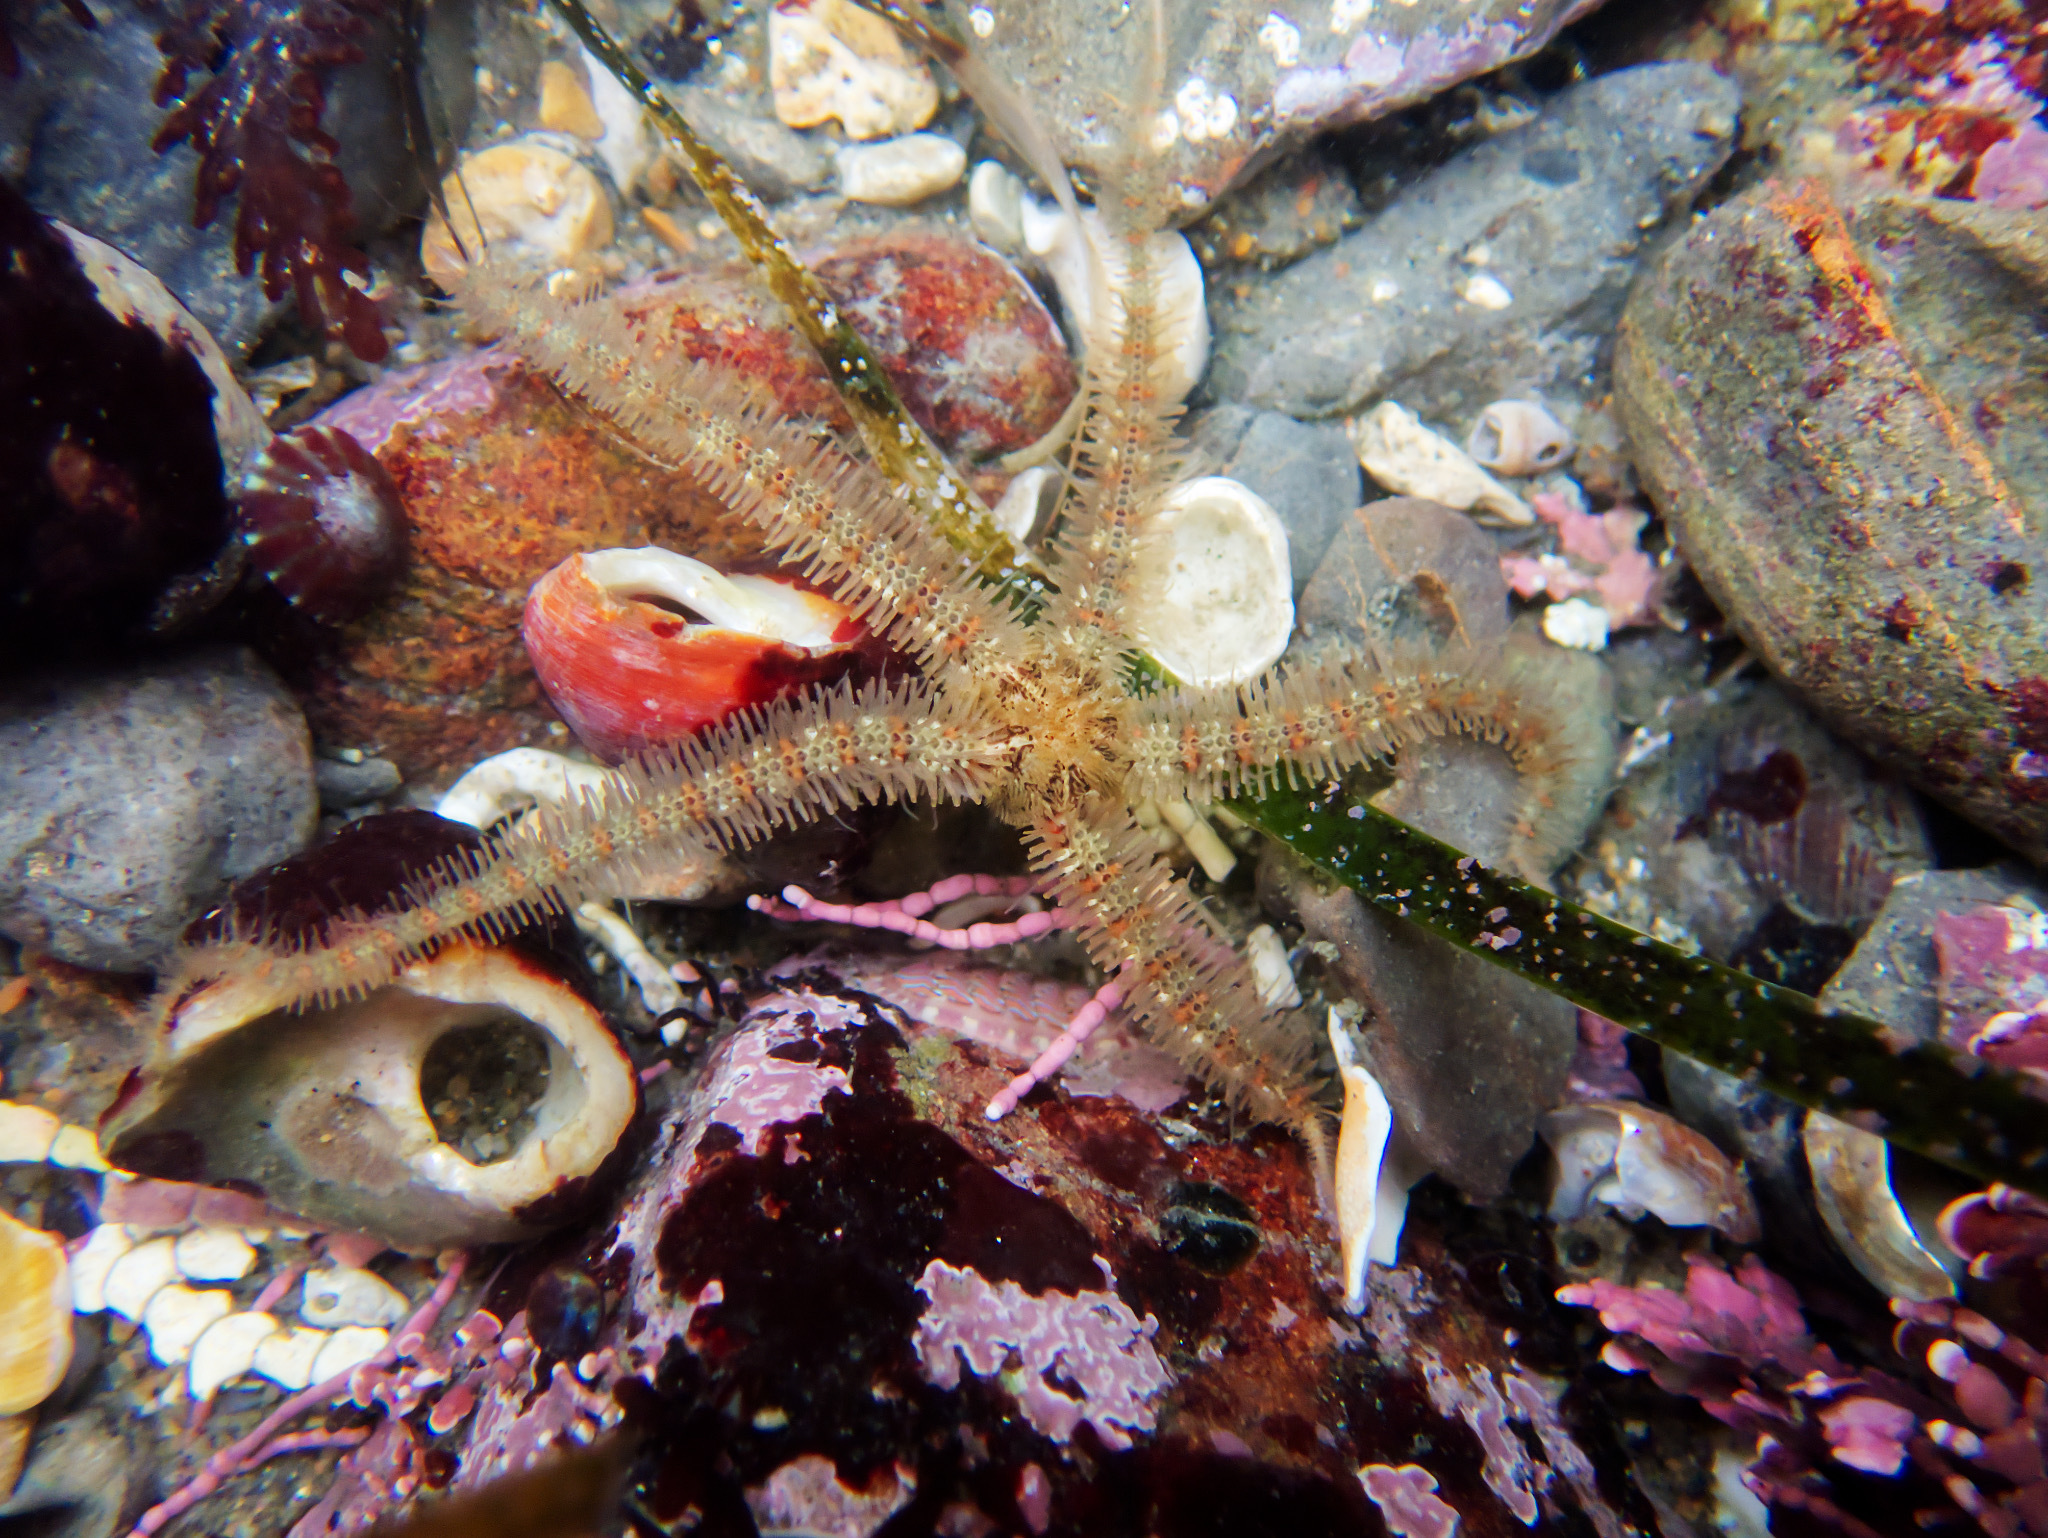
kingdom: Animalia
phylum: Echinodermata
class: Ophiuroidea
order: Amphilepidida
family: Ophiotrichidae
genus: Ophiothrix
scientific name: Ophiothrix spiculata
